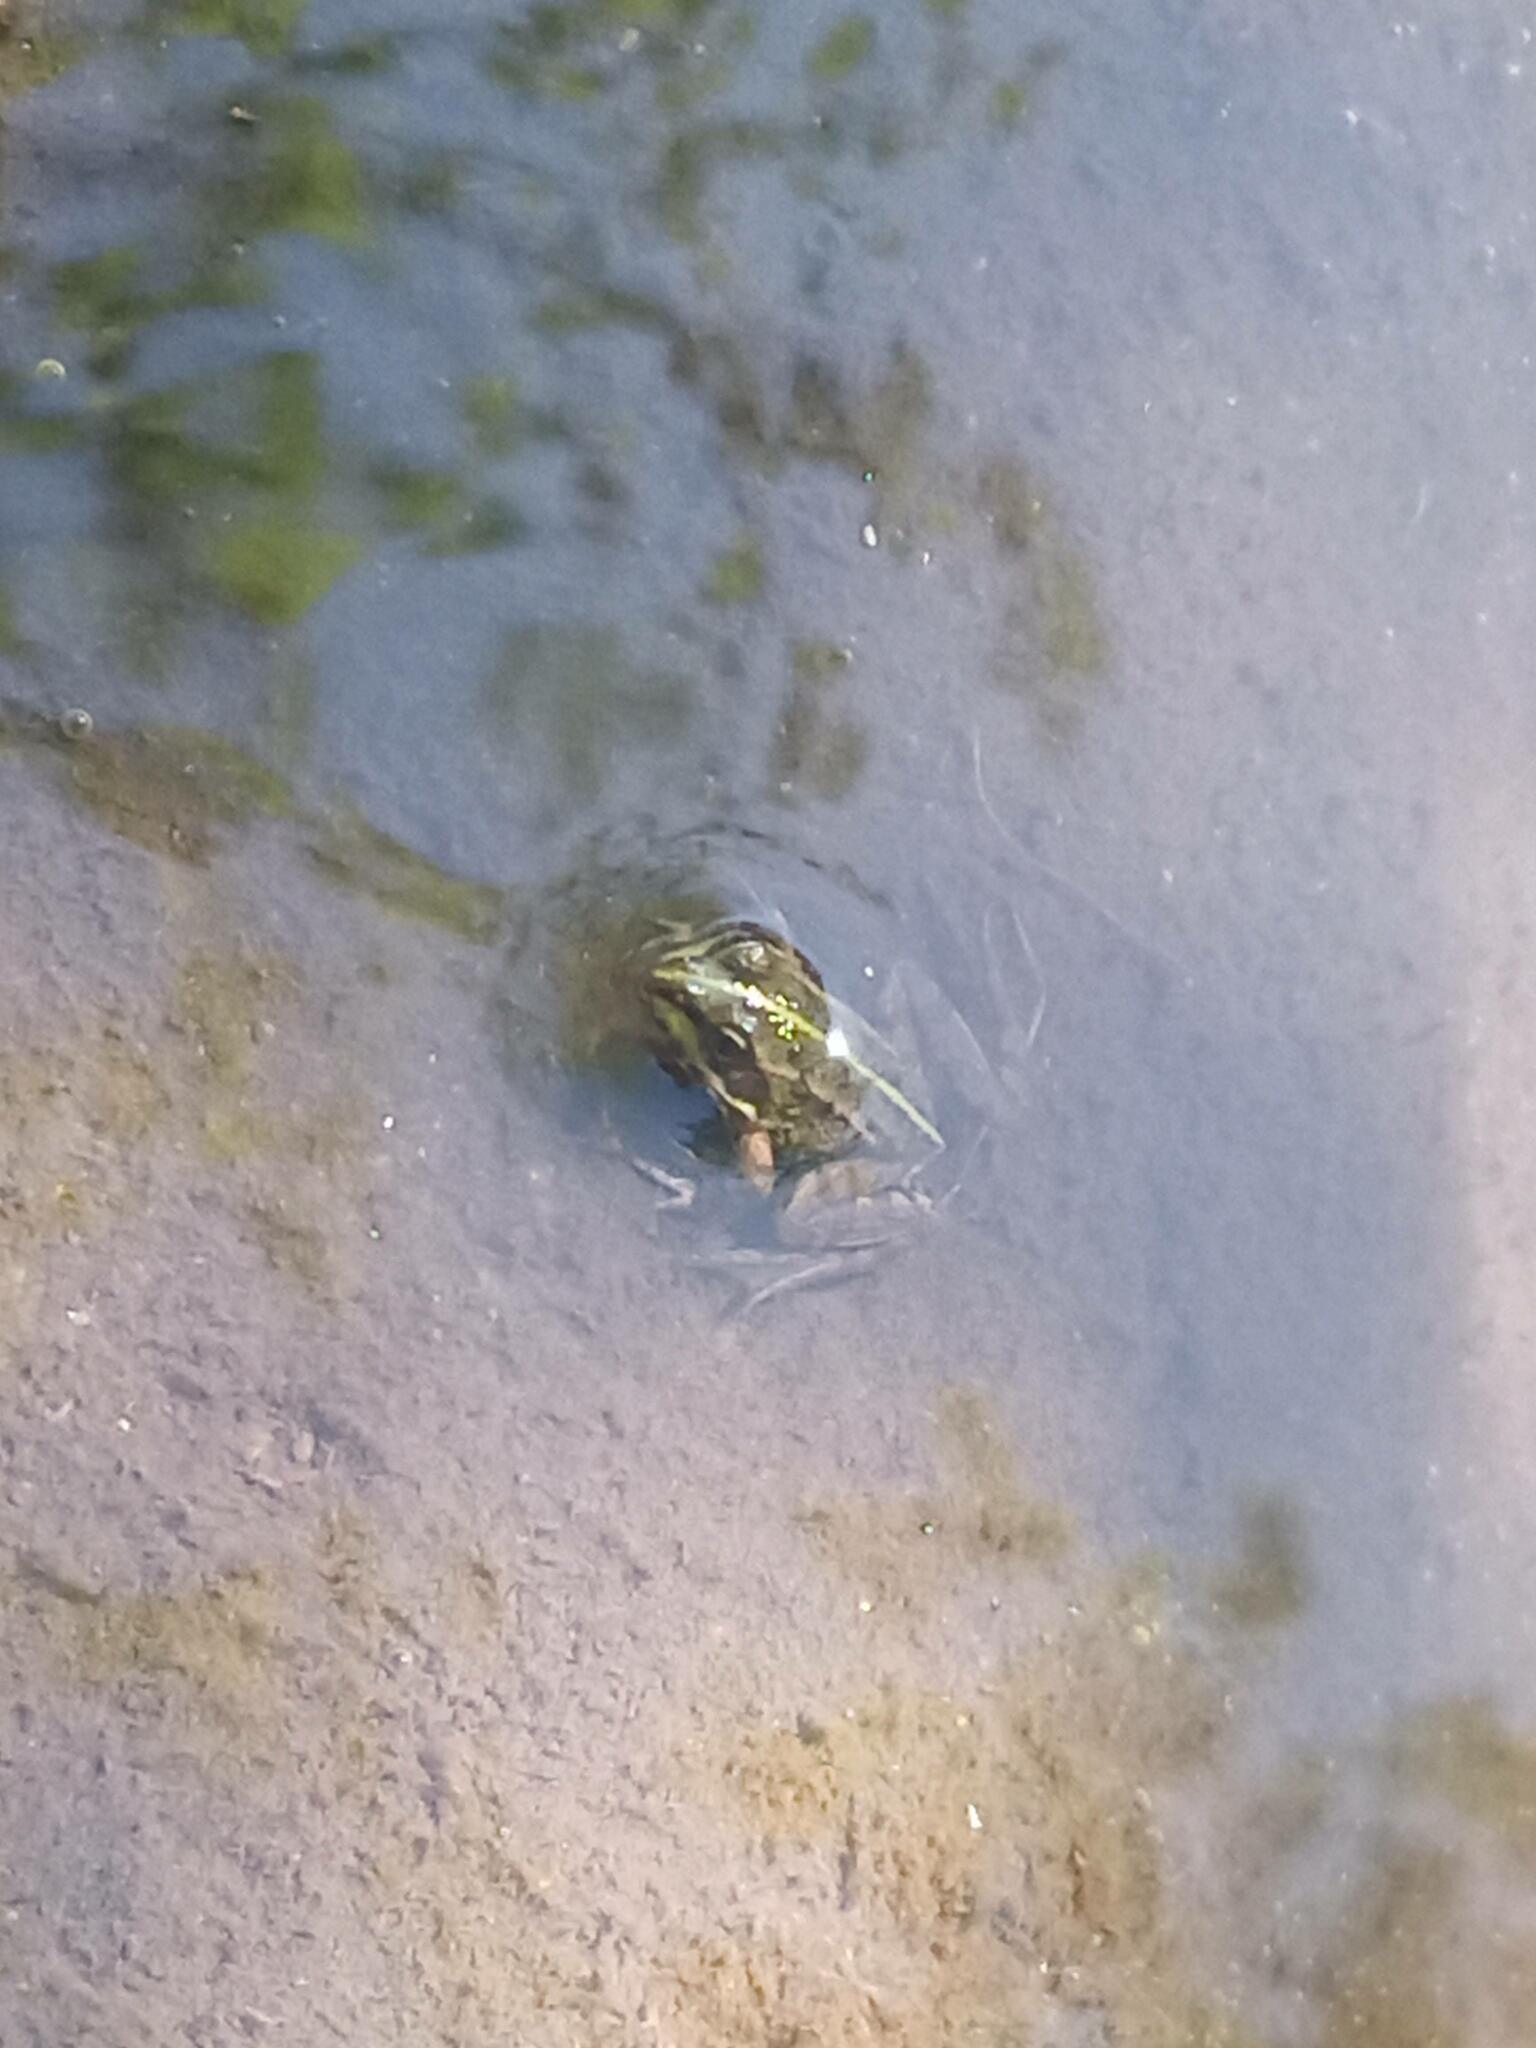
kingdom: Animalia
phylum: Chordata
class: Amphibia
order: Anura
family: Ranidae
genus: Pelophylax
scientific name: Pelophylax perezi
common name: Perez's frog
